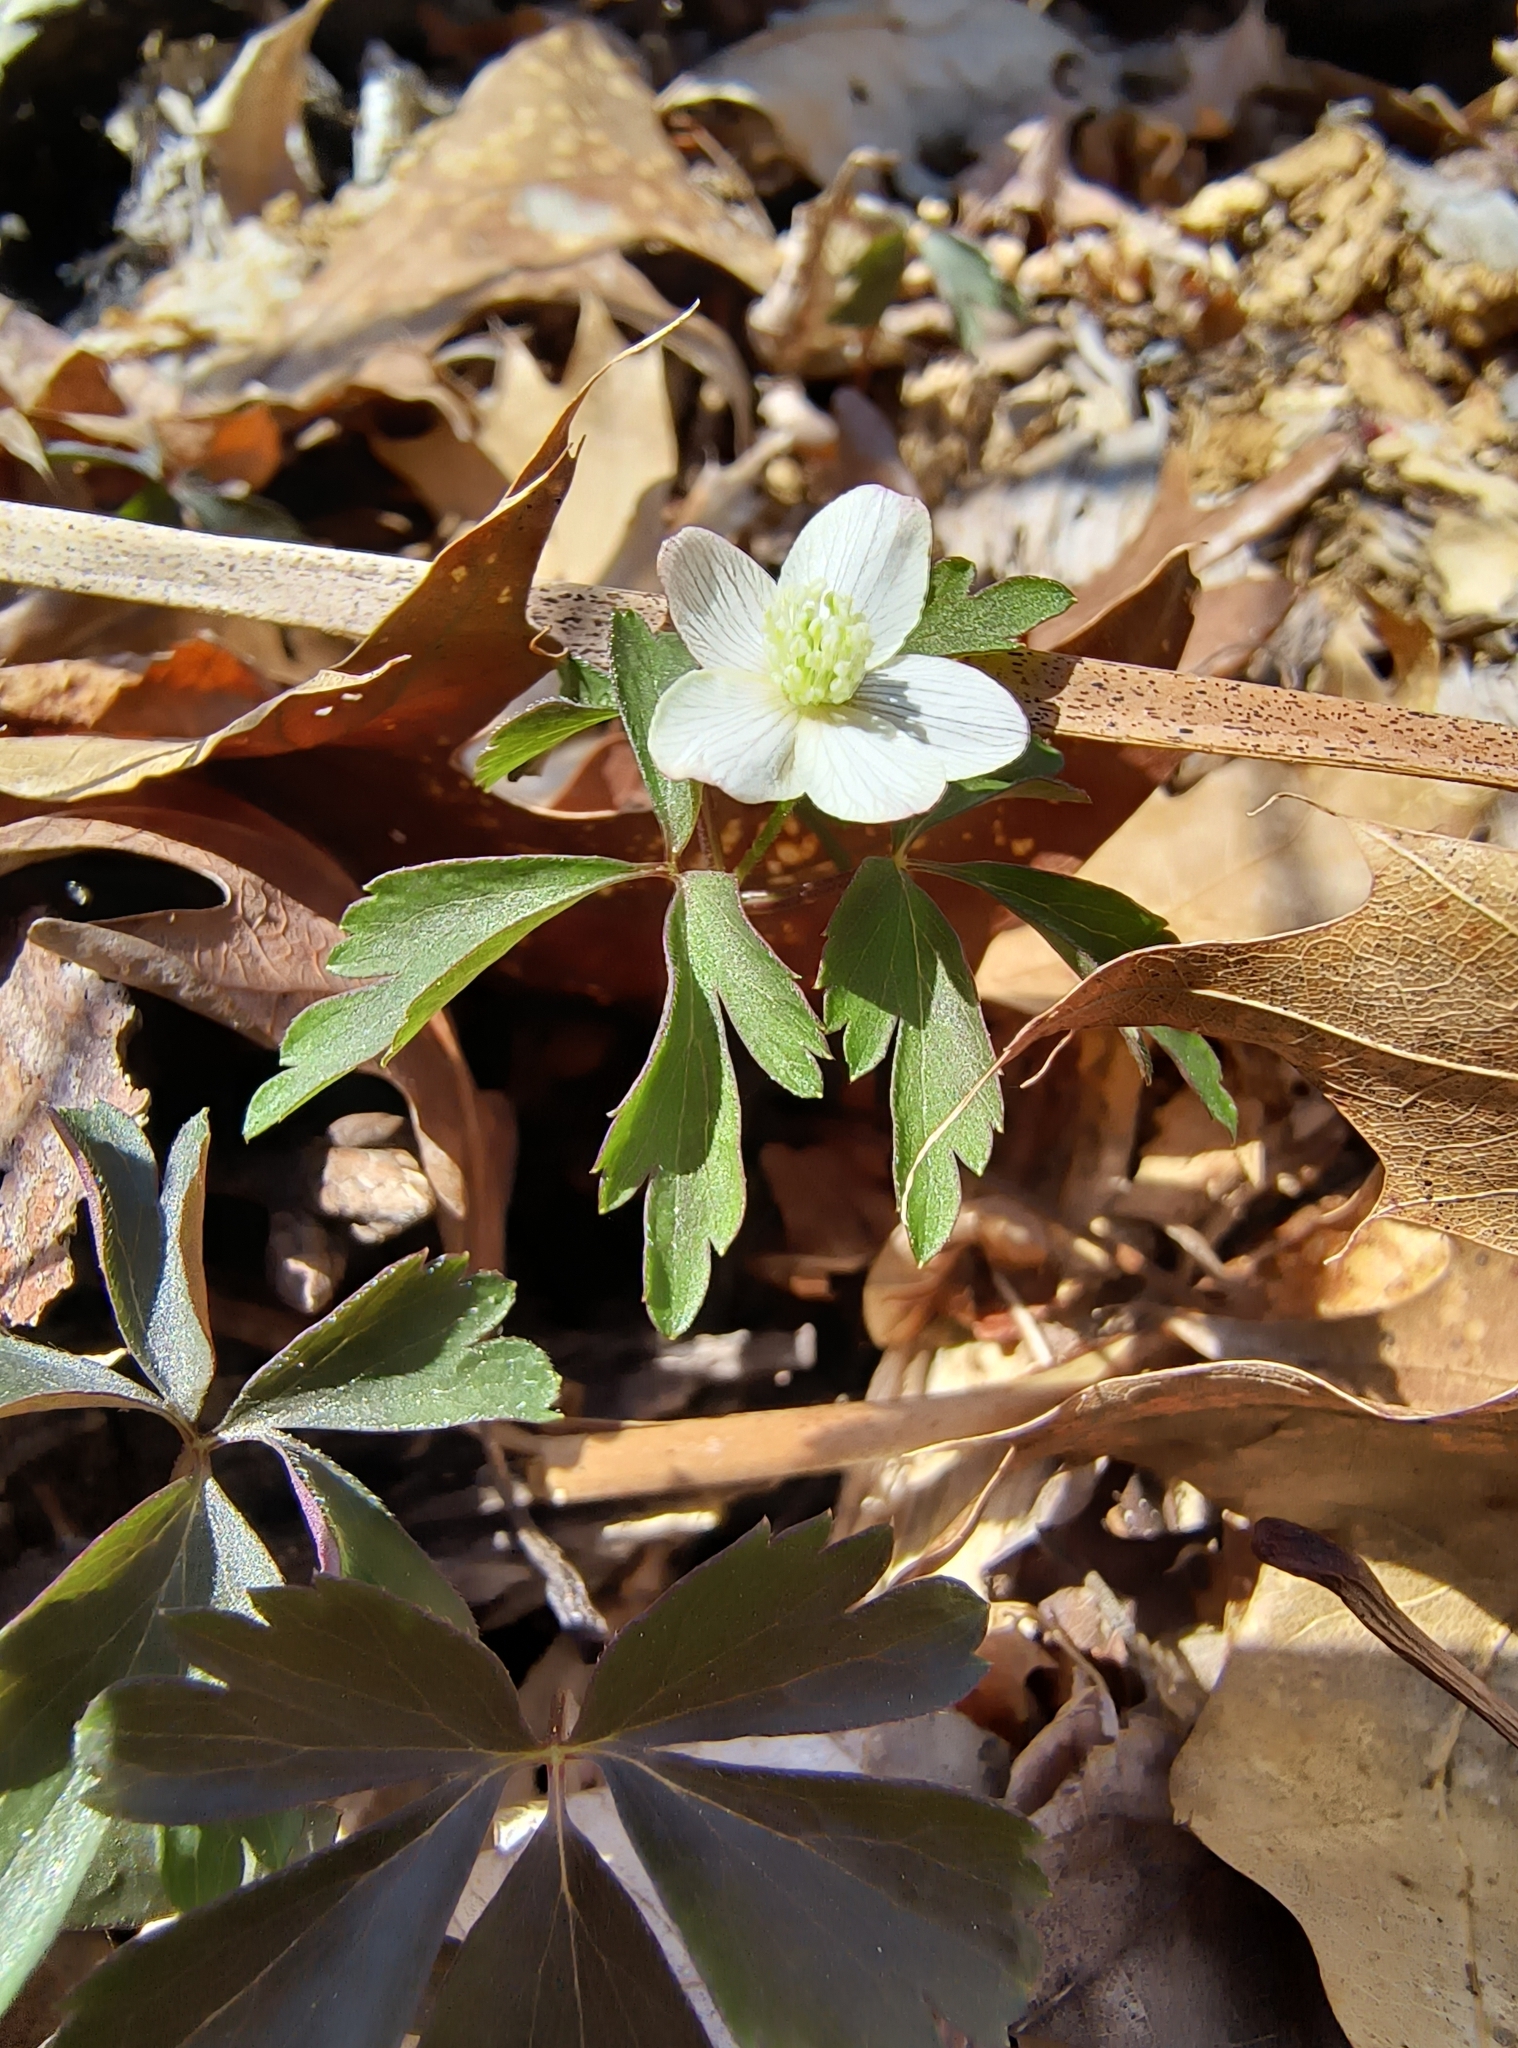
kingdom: Plantae
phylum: Tracheophyta
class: Magnoliopsida
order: Ranunculales
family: Ranunculaceae
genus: Anemone
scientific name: Anemone quinquefolia
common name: Wood anemone
